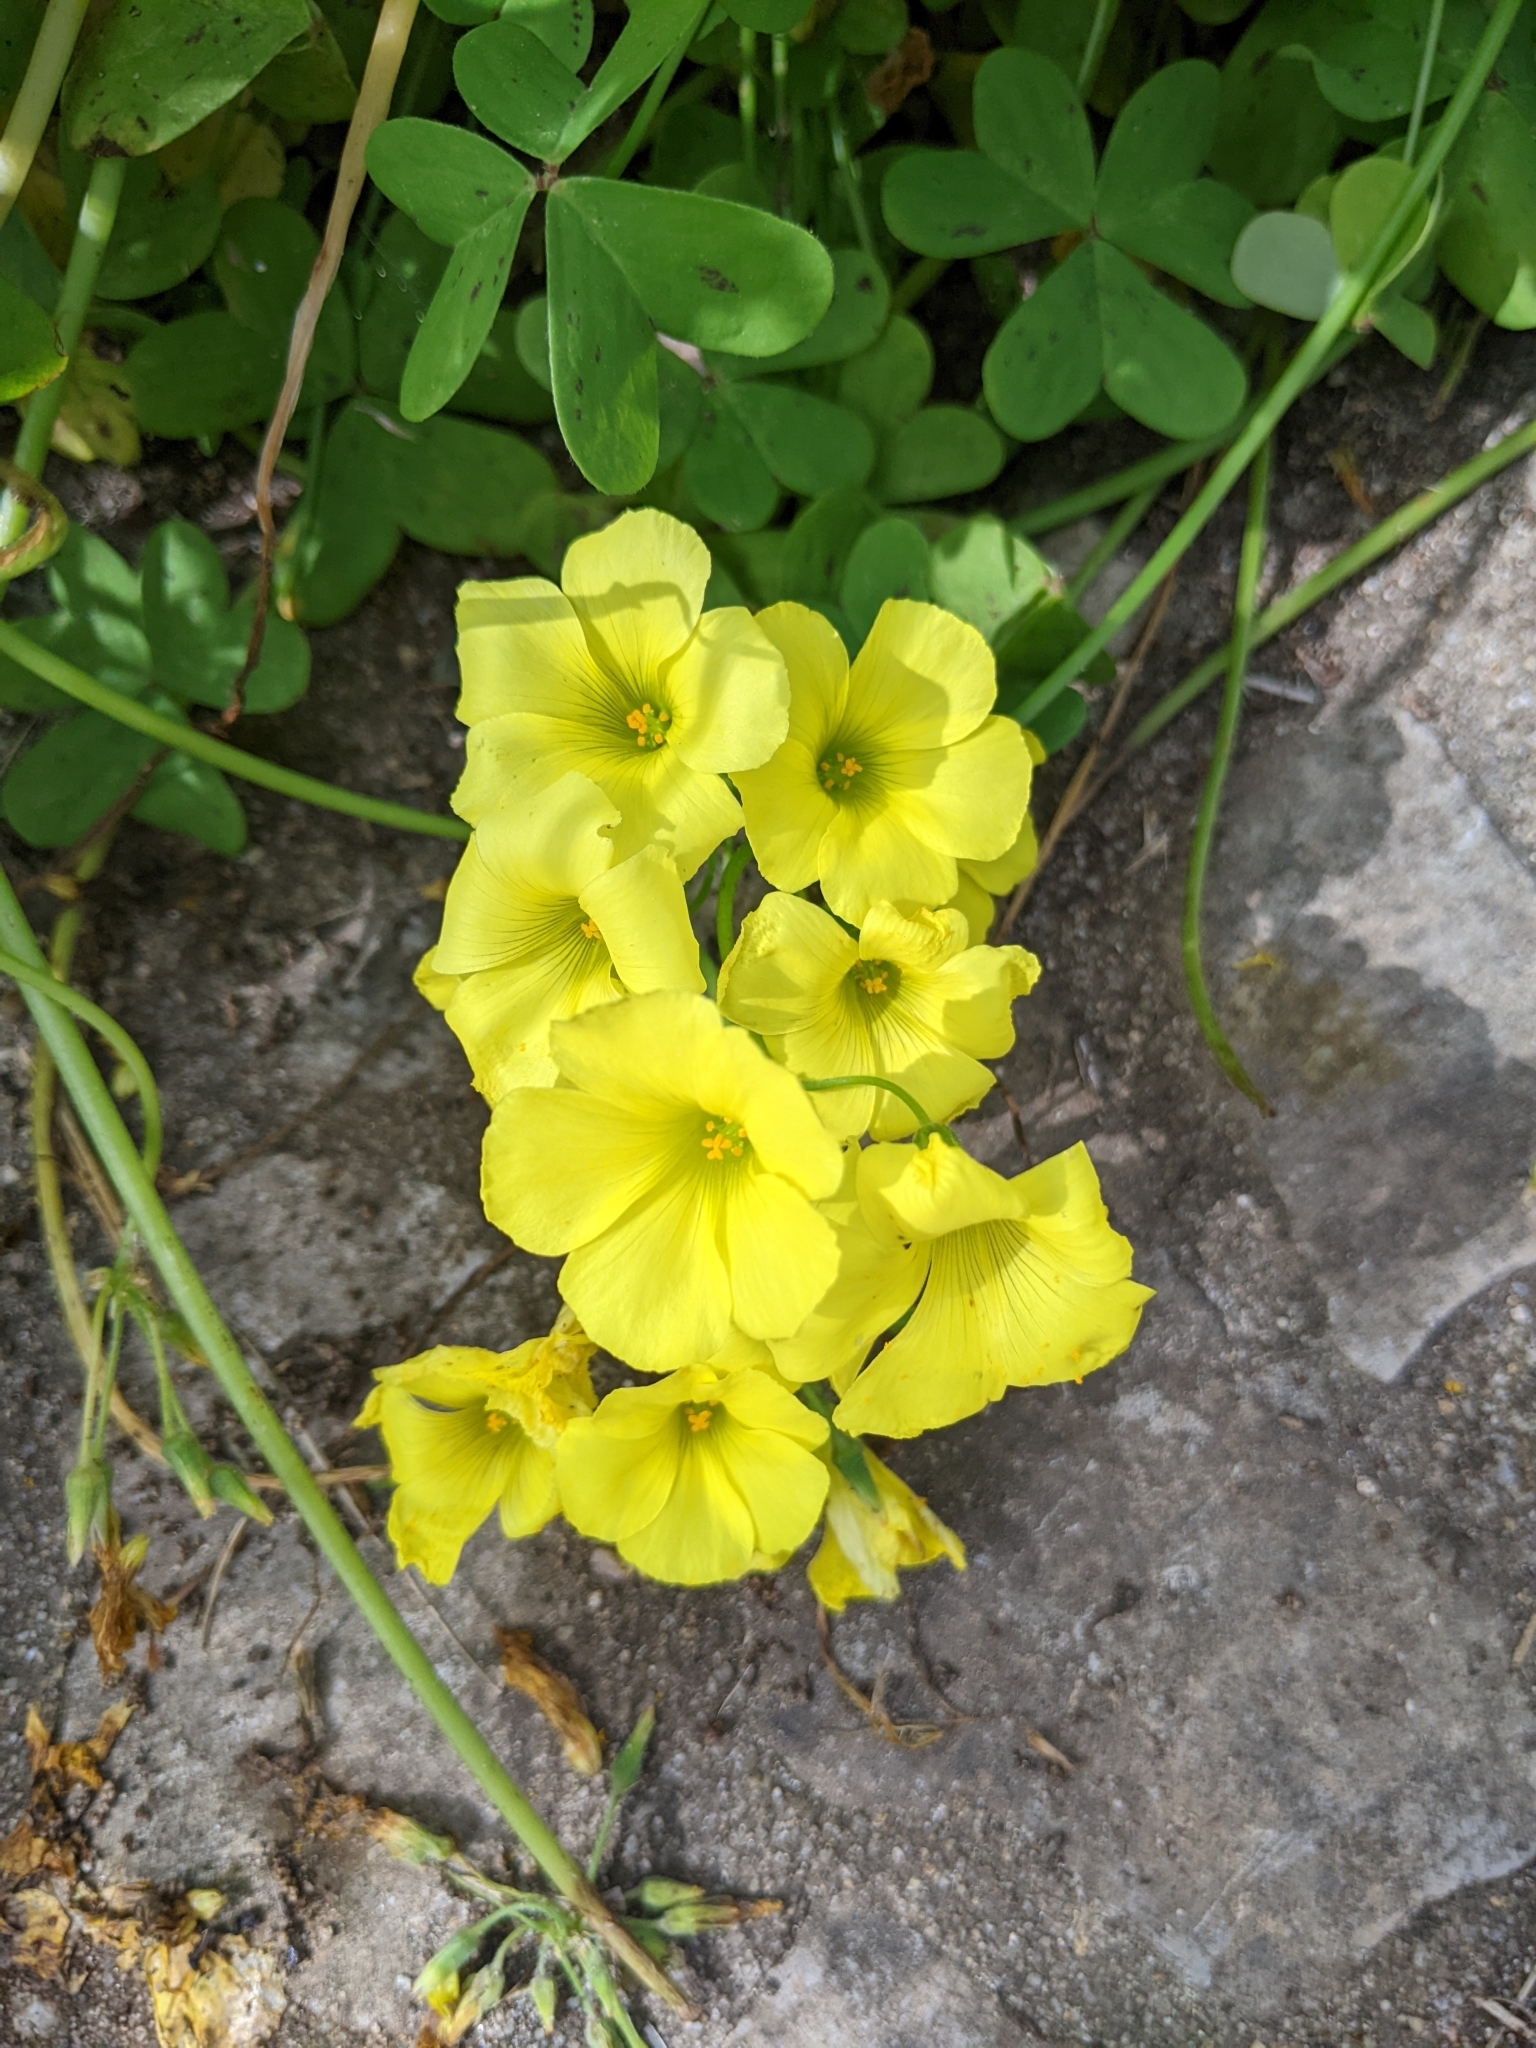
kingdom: Plantae
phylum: Tracheophyta
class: Magnoliopsida
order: Oxalidales
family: Oxalidaceae
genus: Oxalis
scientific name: Oxalis pes-caprae
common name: Bermuda-buttercup
